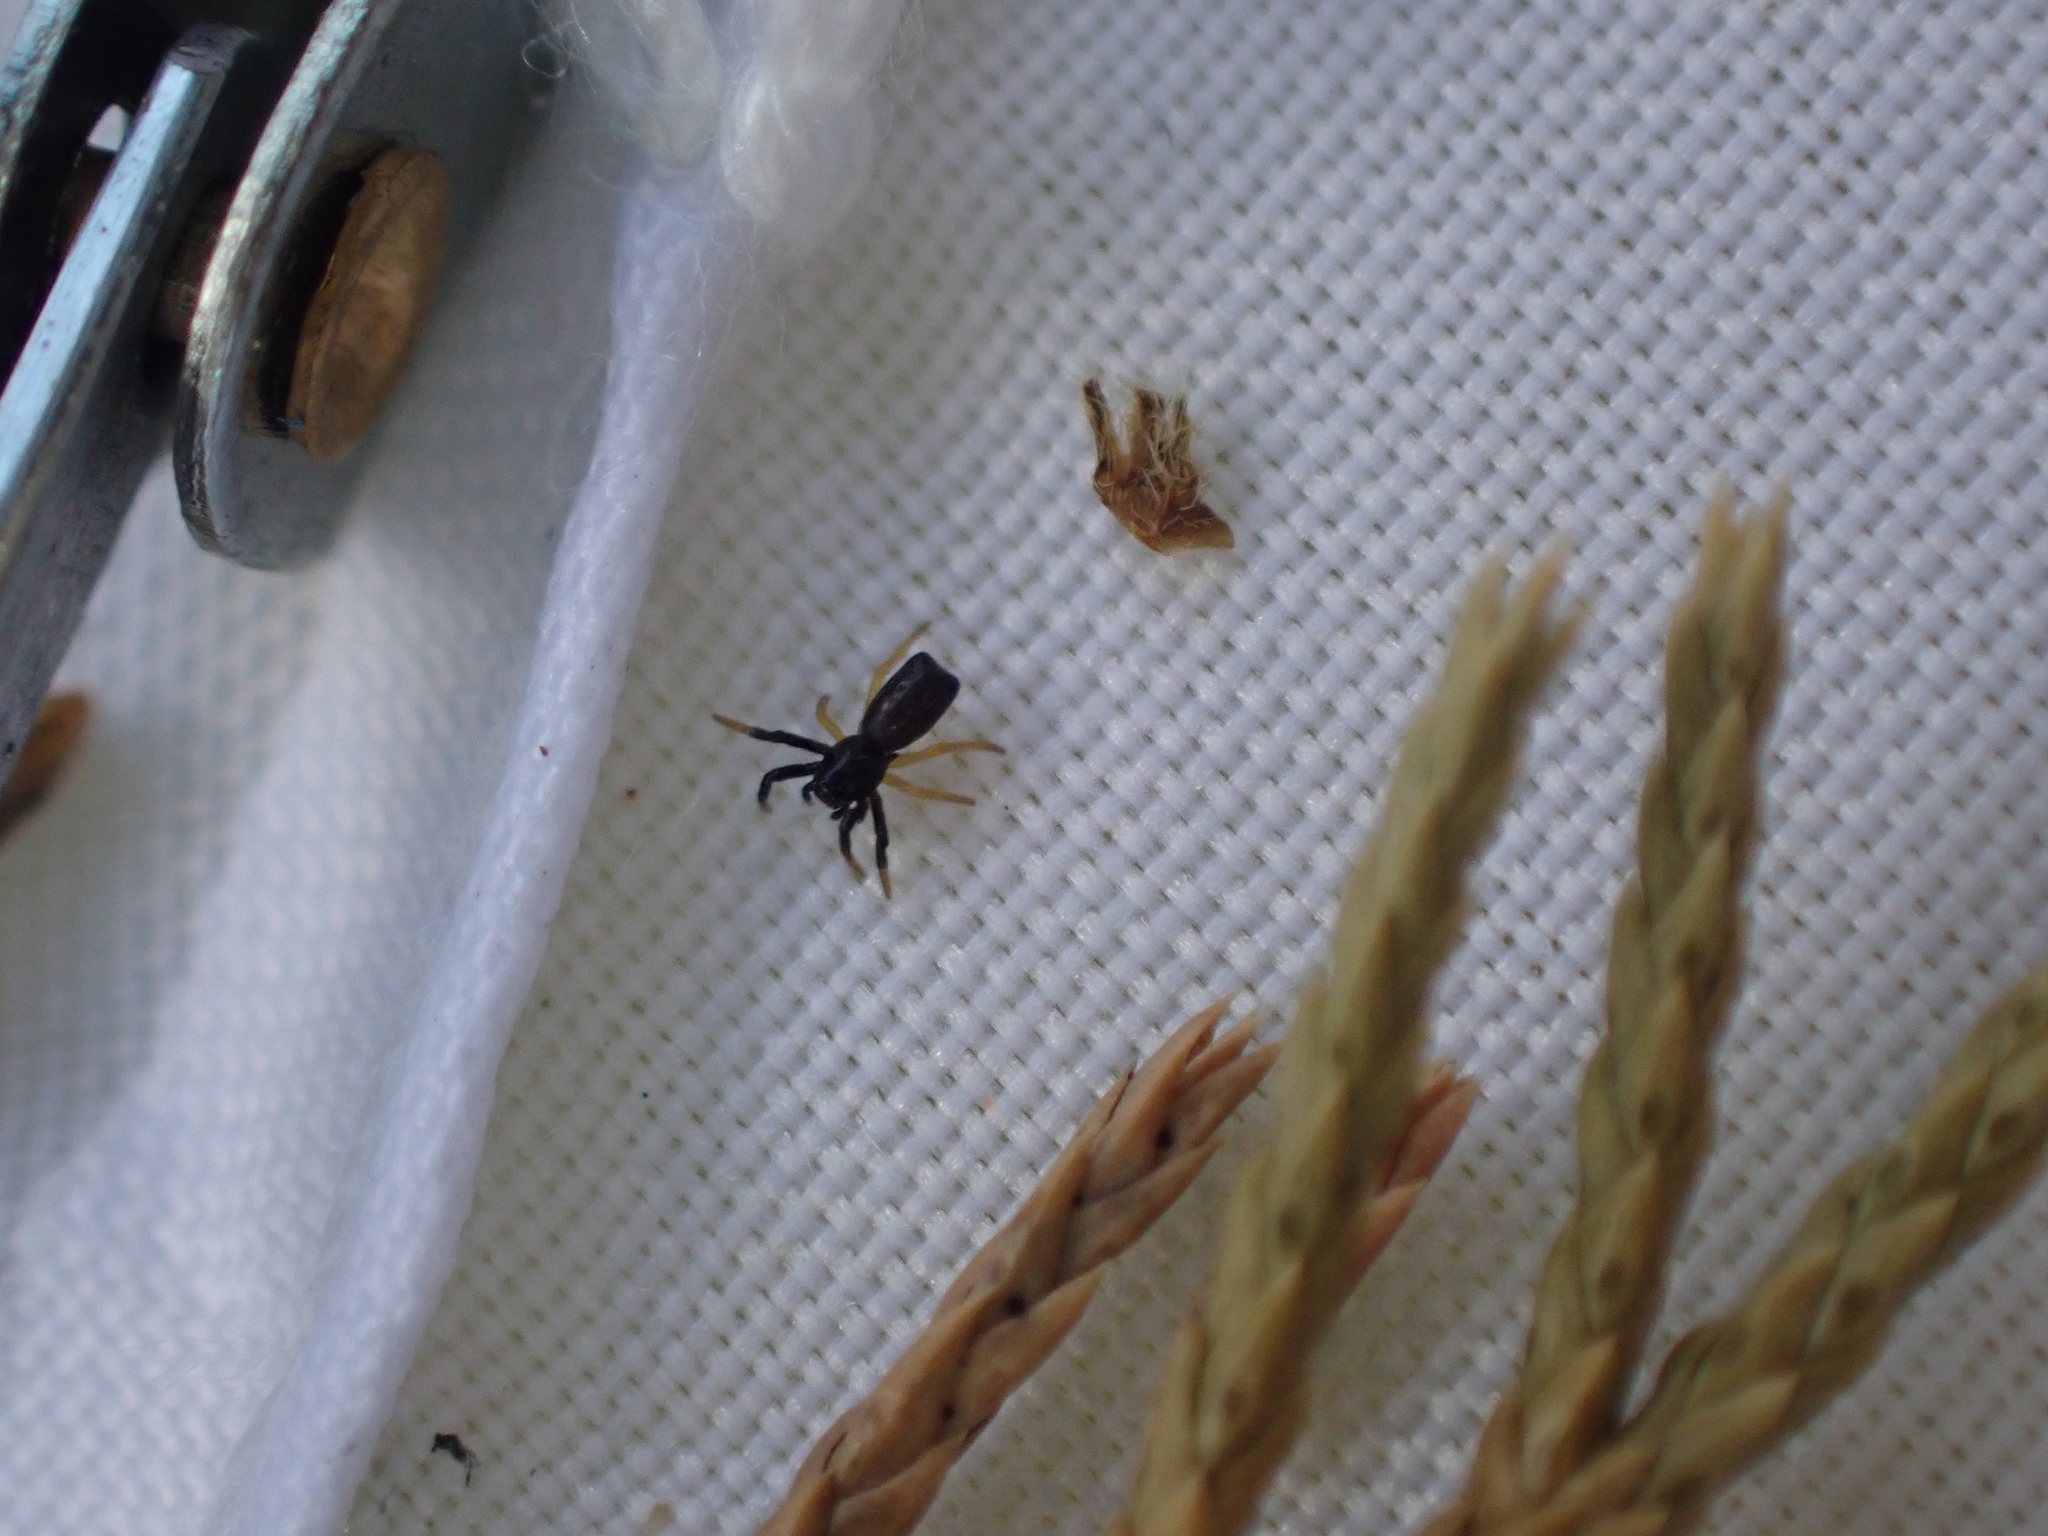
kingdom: Animalia
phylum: Arthropoda
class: Arachnida
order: Araneae
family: Araneidae
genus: Micrathena
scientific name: Micrathena sagittata
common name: Orb weavers
